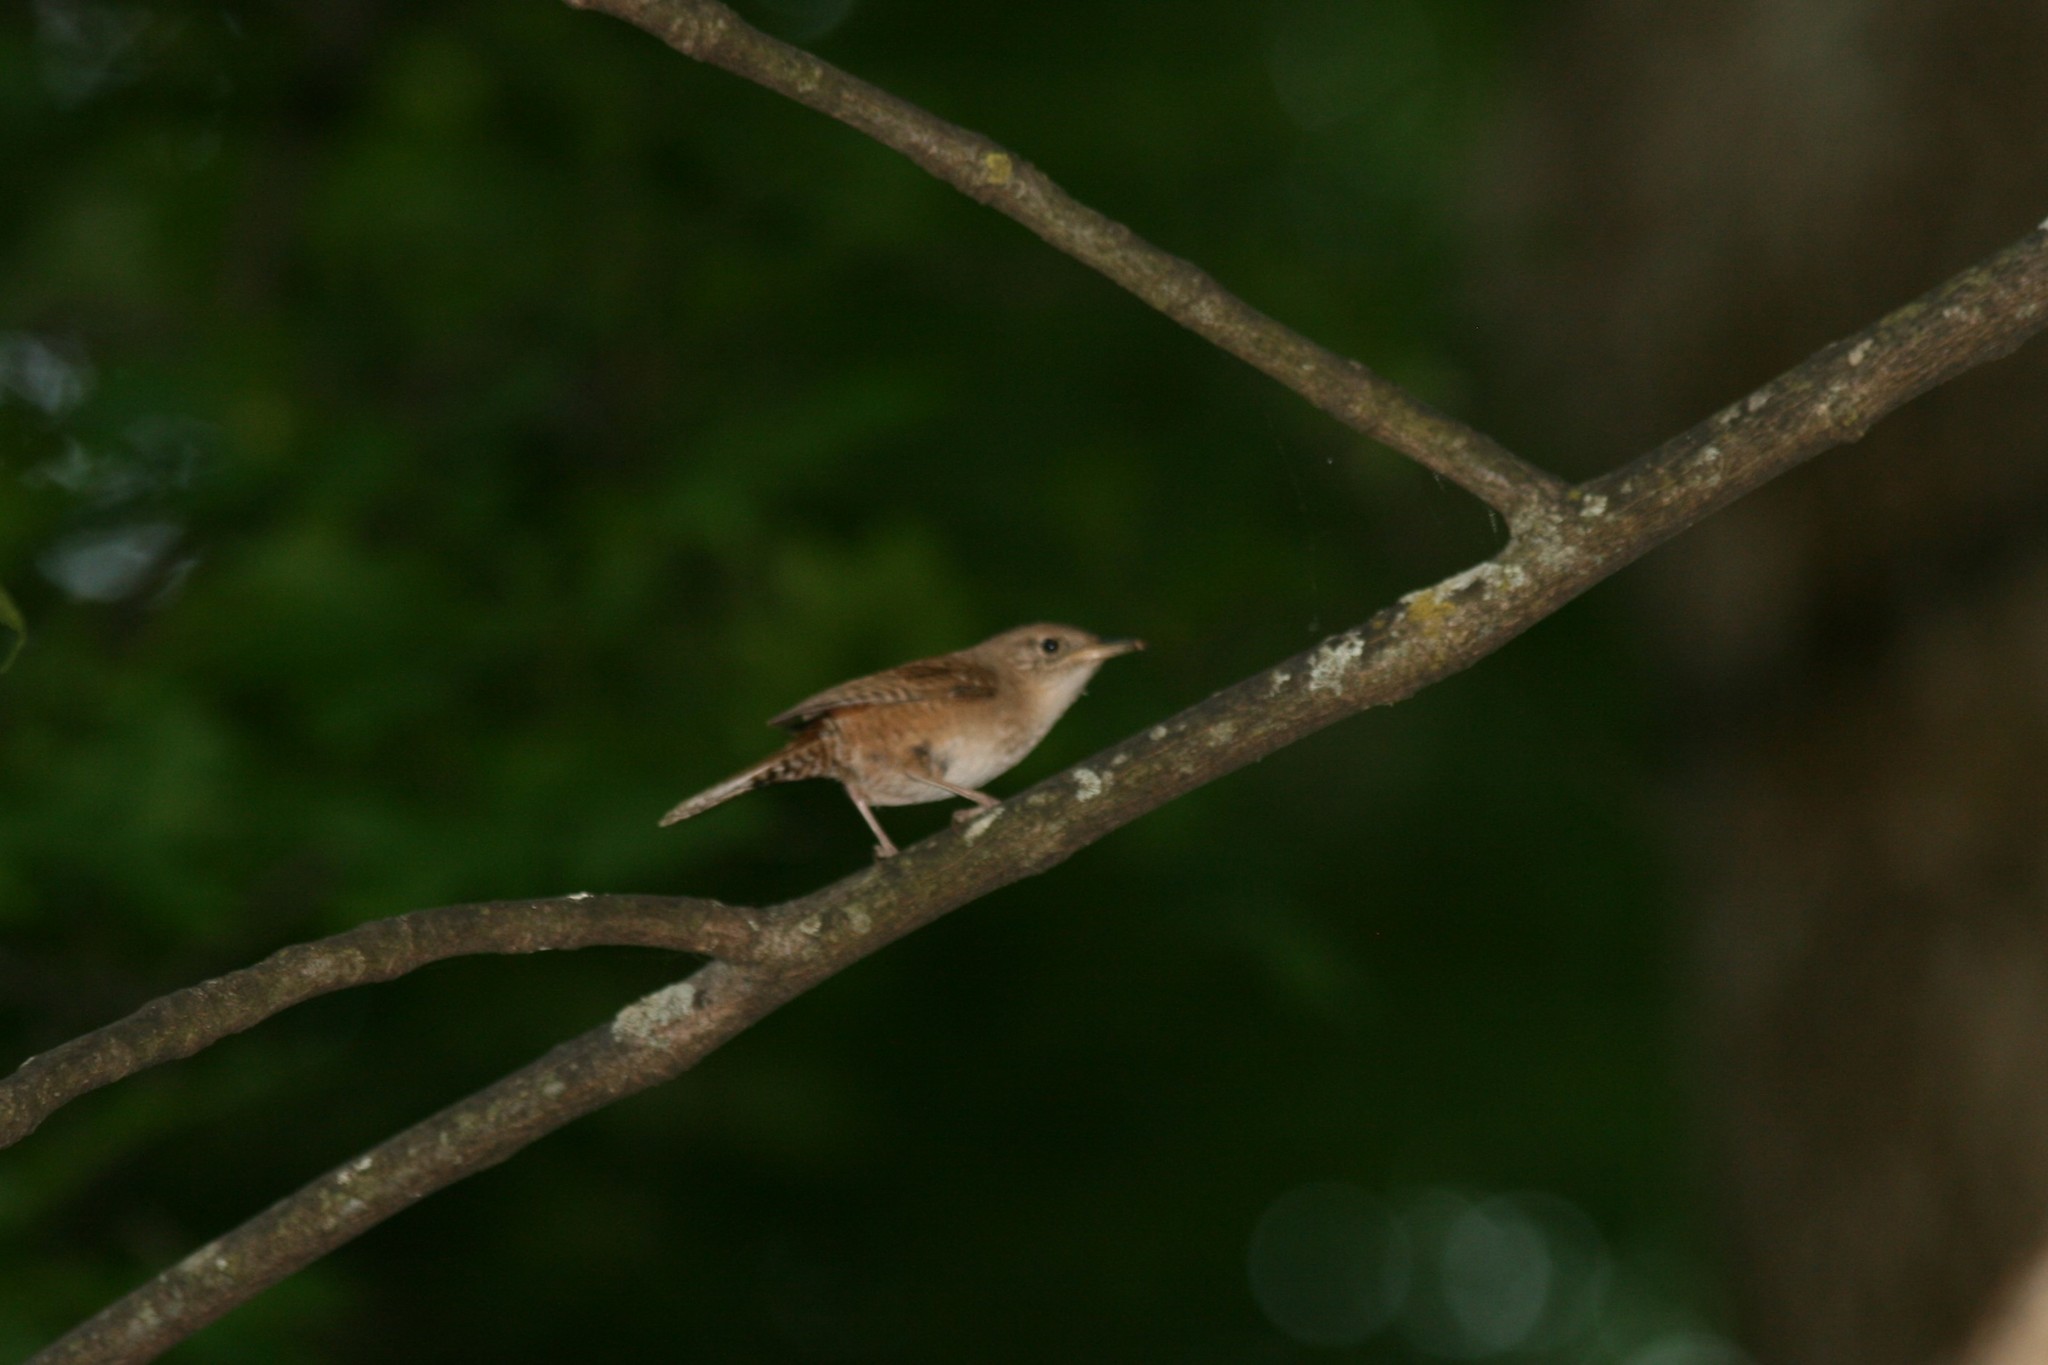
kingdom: Animalia
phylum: Chordata
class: Aves
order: Passeriformes
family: Troglodytidae
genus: Troglodytes
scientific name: Troglodytes aedon
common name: House wren
